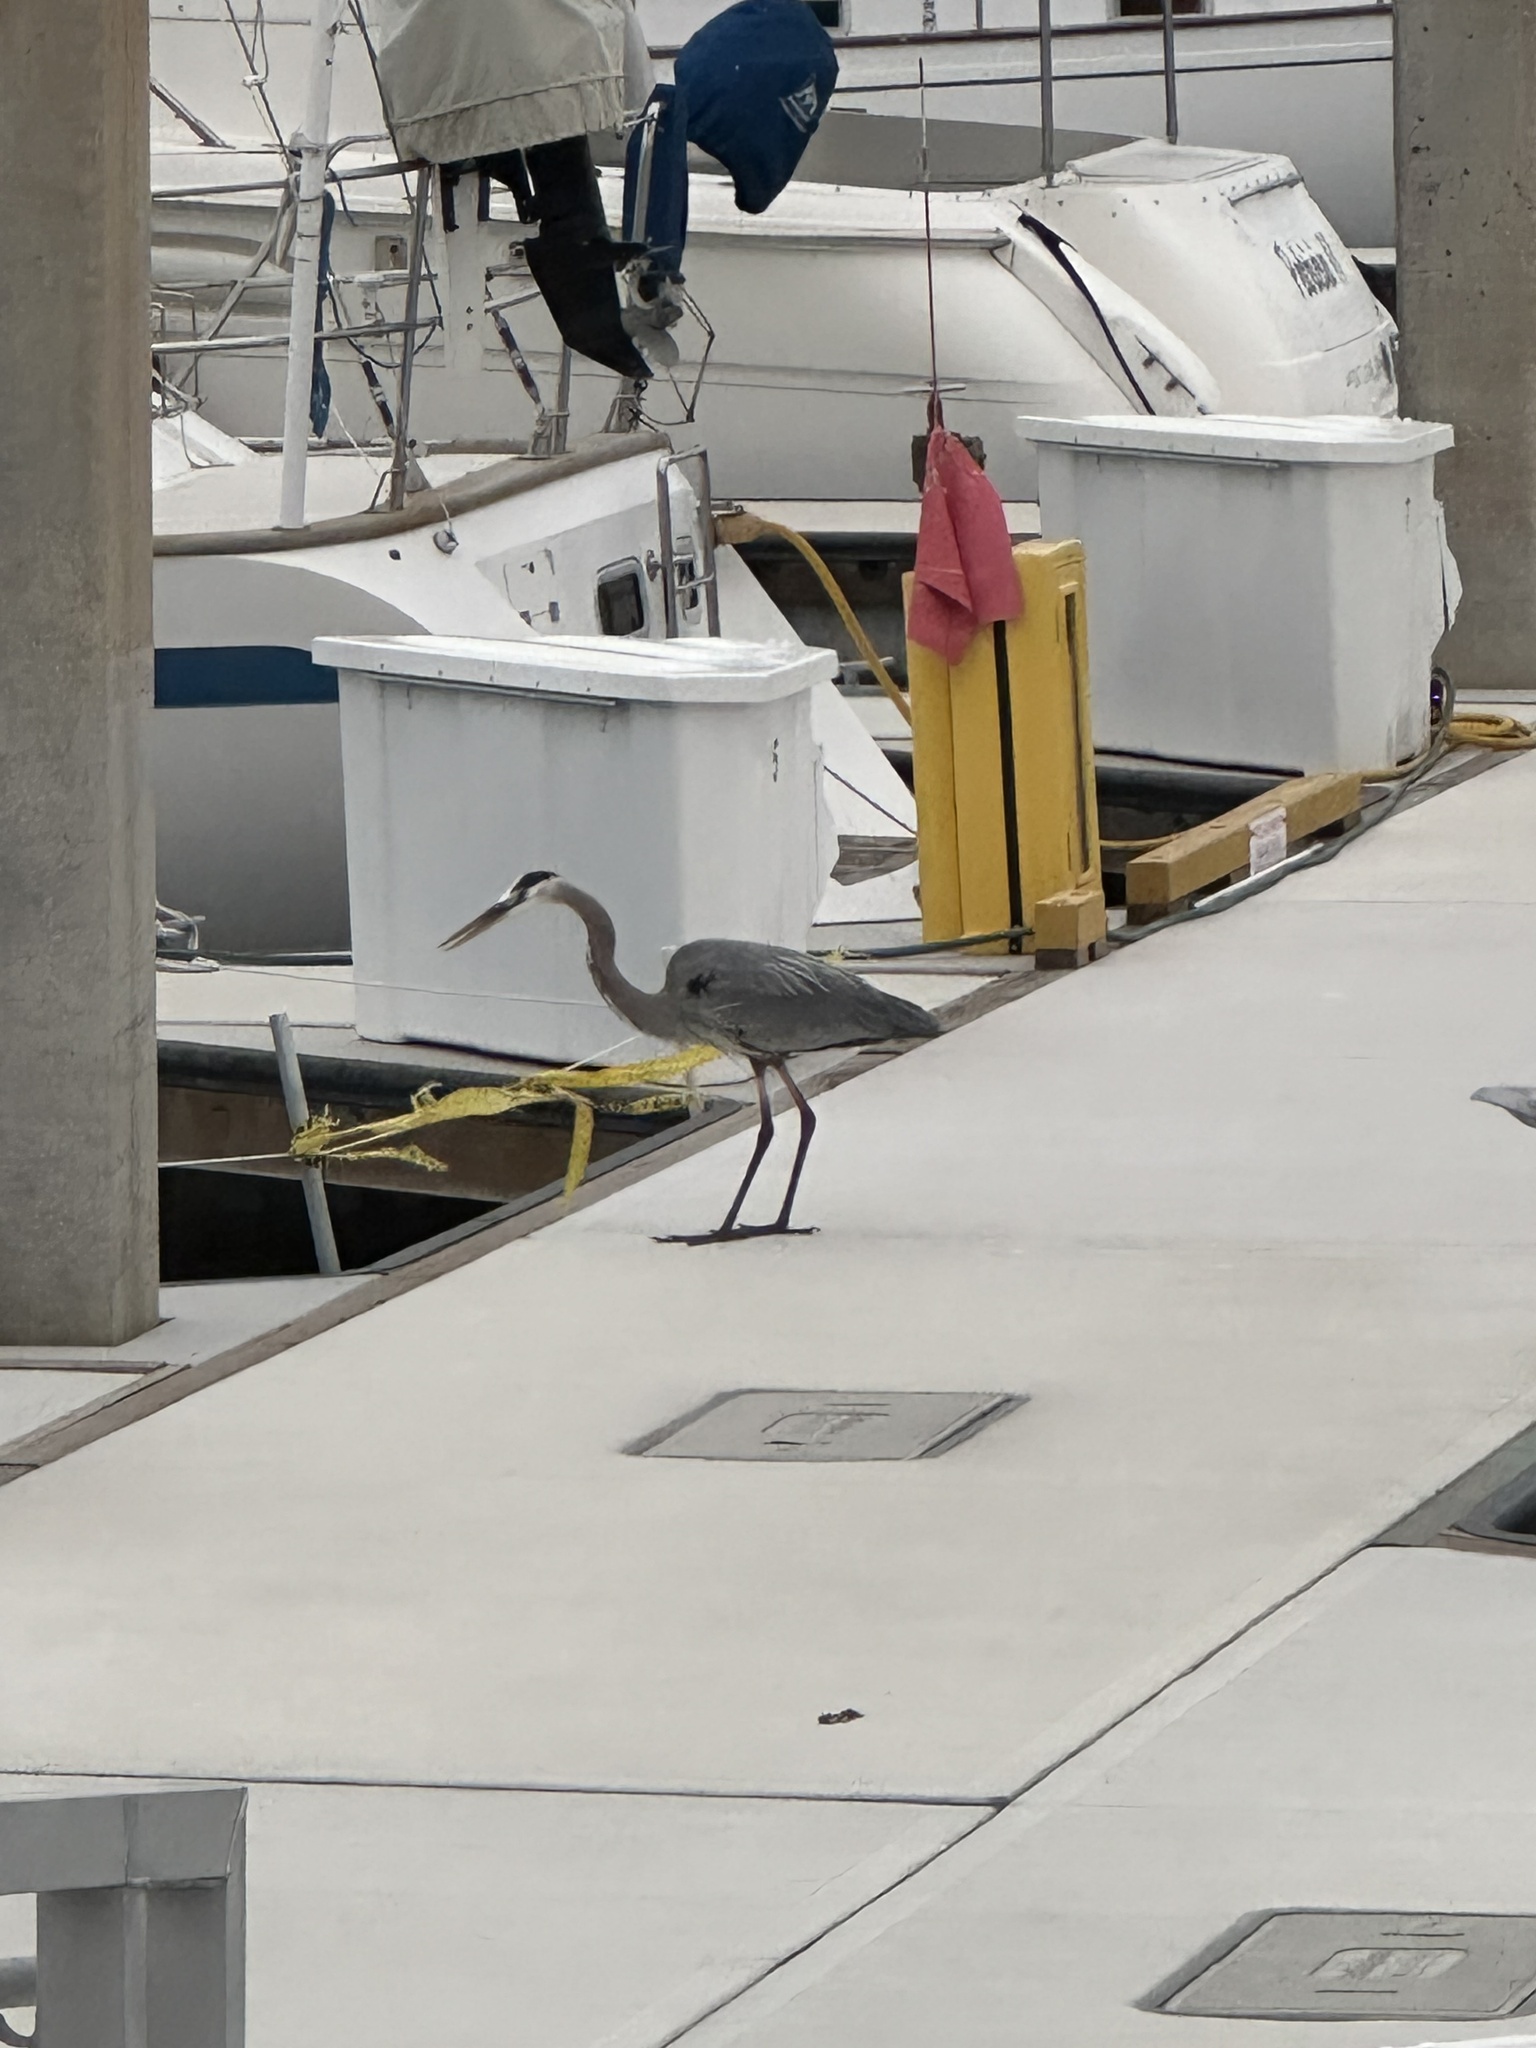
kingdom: Animalia
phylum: Chordata
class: Aves
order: Pelecaniformes
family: Ardeidae
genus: Ardea
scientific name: Ardea herodias
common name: Great blue heron
